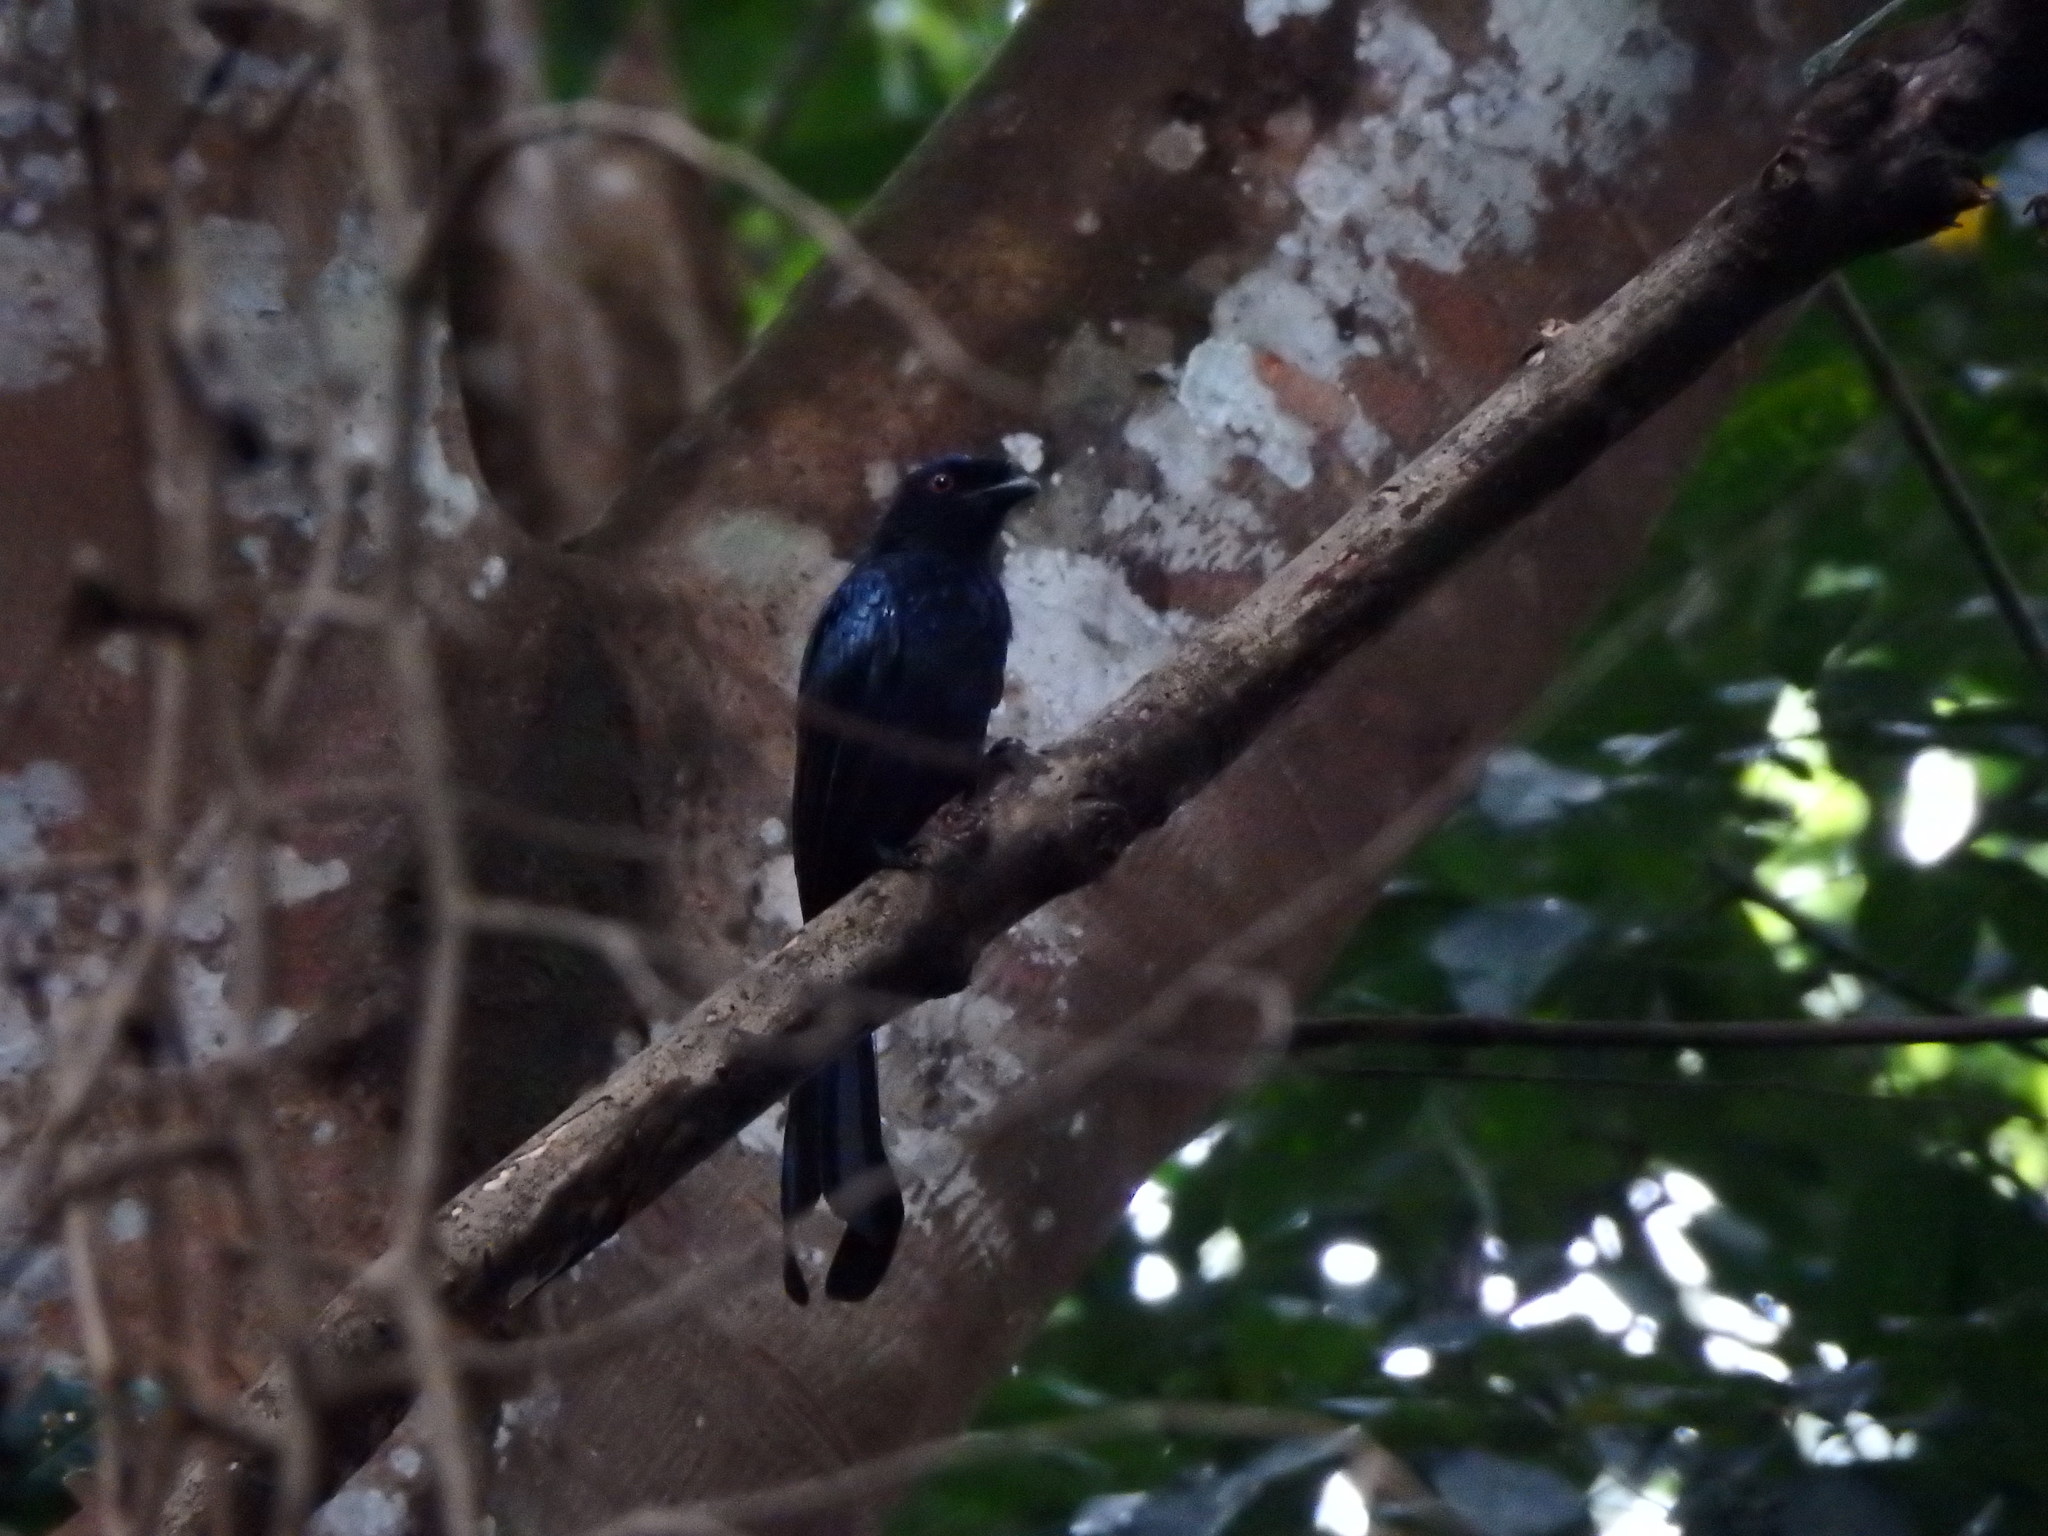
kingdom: Animalia
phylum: Chordata
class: Aves
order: Passeriformes
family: Dicruridae
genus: Dicrurus
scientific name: Dicrurus paradiseus
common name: Greater racket-tailed drongo
